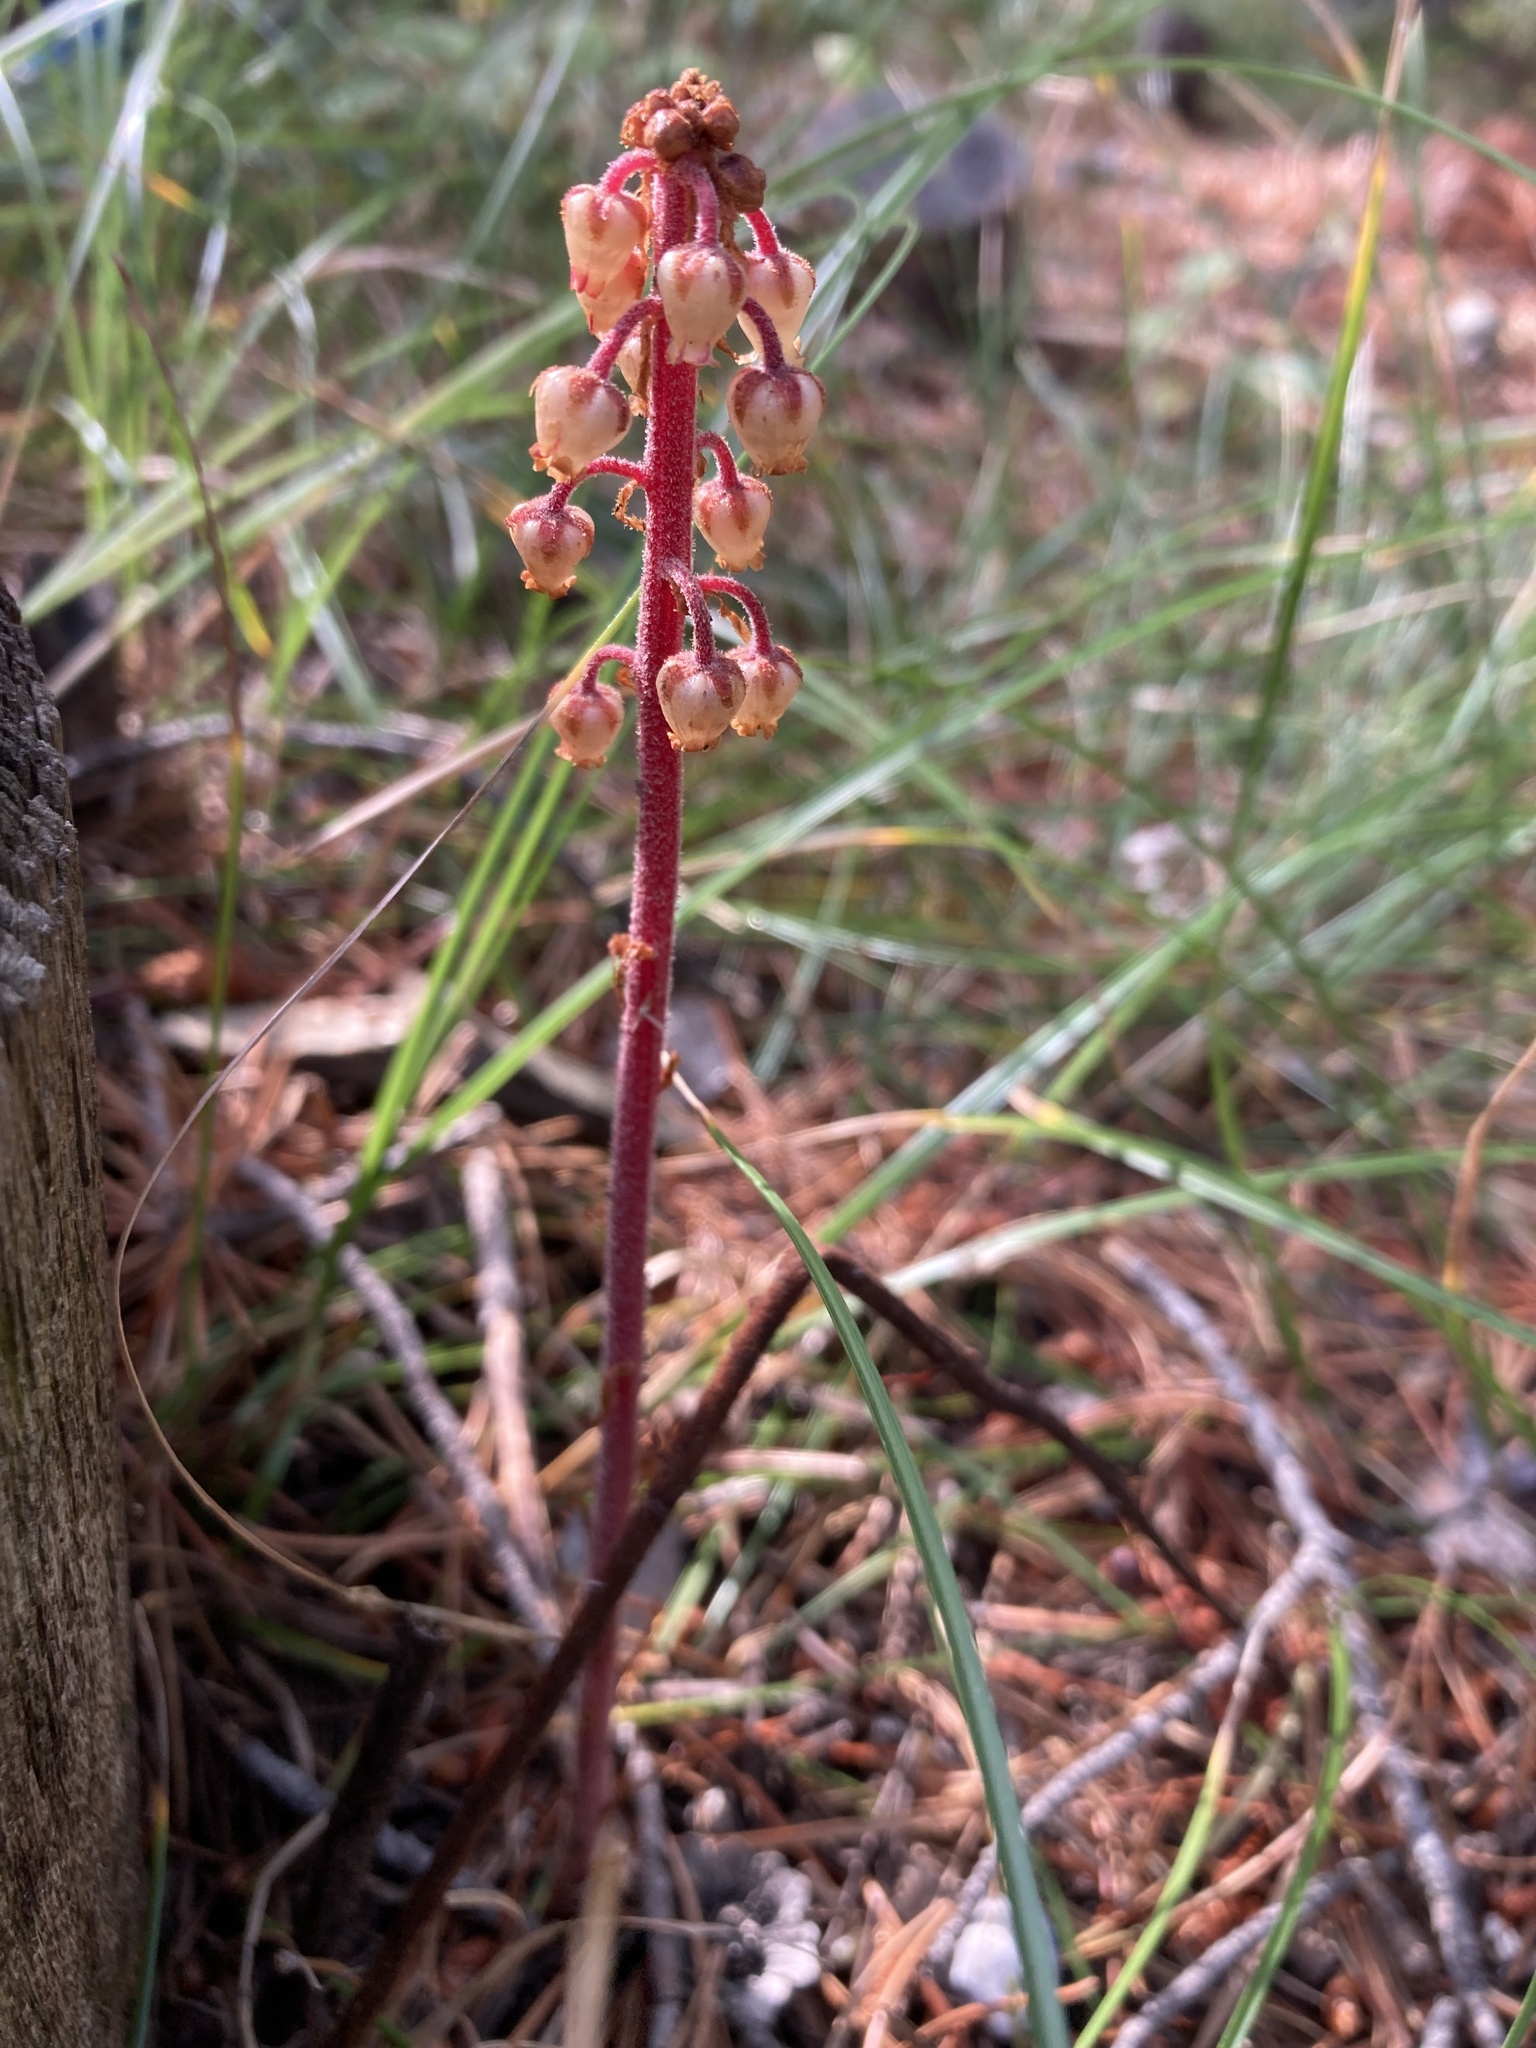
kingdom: Plantae
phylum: Tracheophyta
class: Magnoliopsida
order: Ericales
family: Ericaceae
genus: Pterospora
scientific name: Pterospora andromedea
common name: Giant bird's-nest
